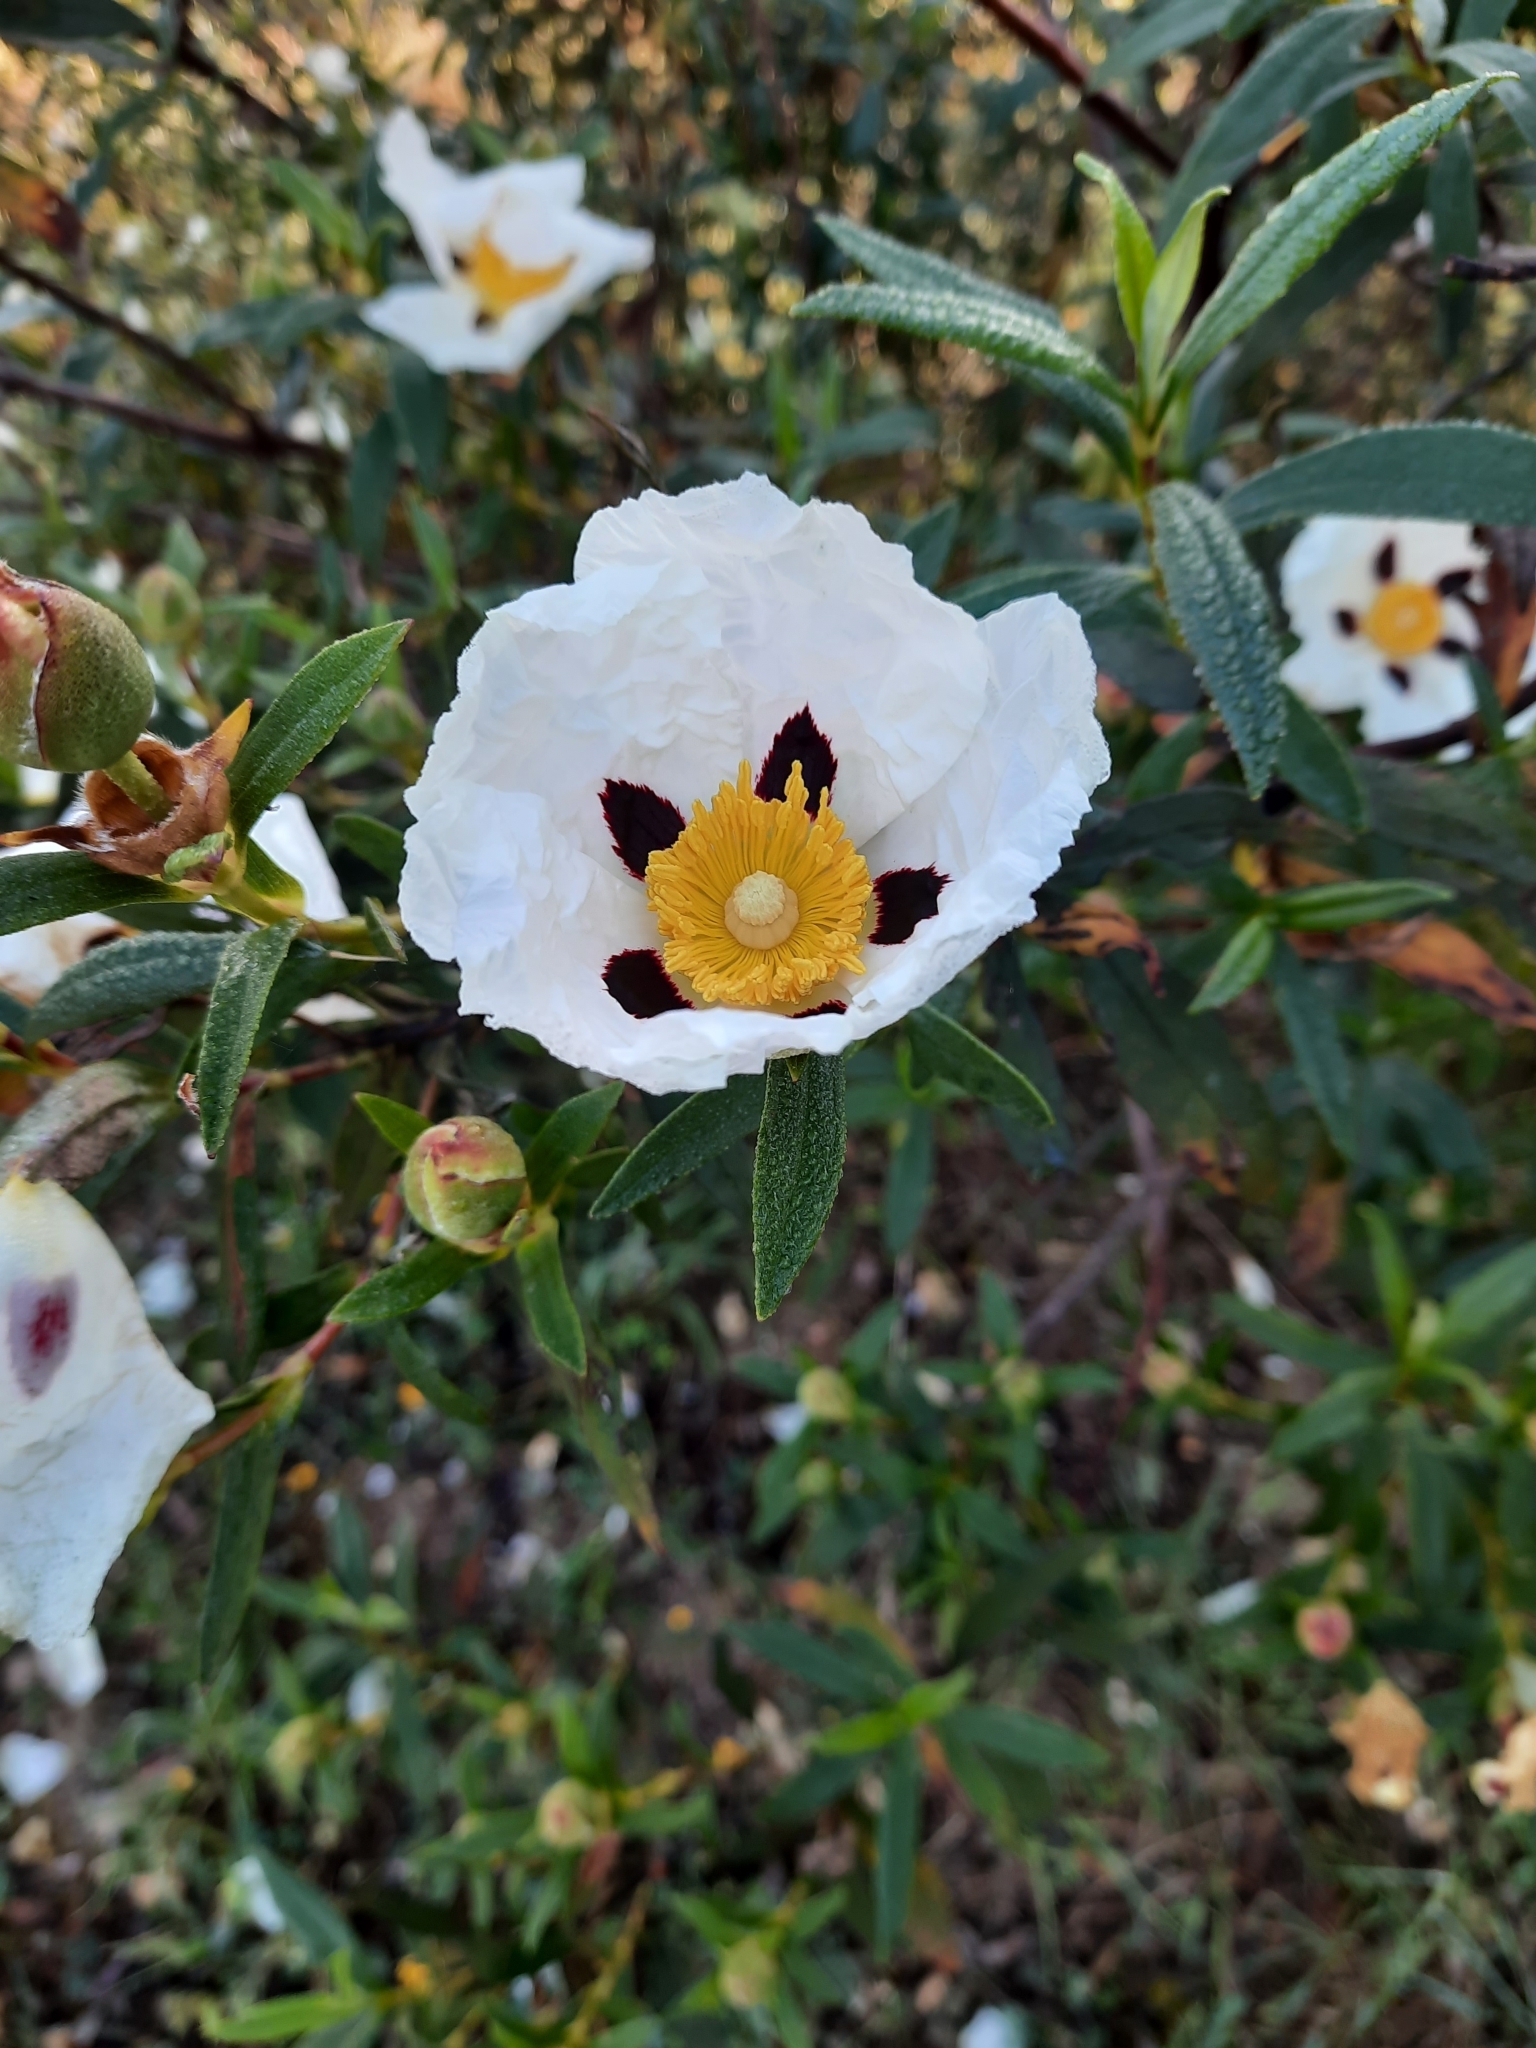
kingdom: Plantae
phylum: Tracheophyta
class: Magnoliopsida
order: Malvales
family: Cistaceae
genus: Cistus
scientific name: Cistus ladanifer
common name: Common gum cistus
